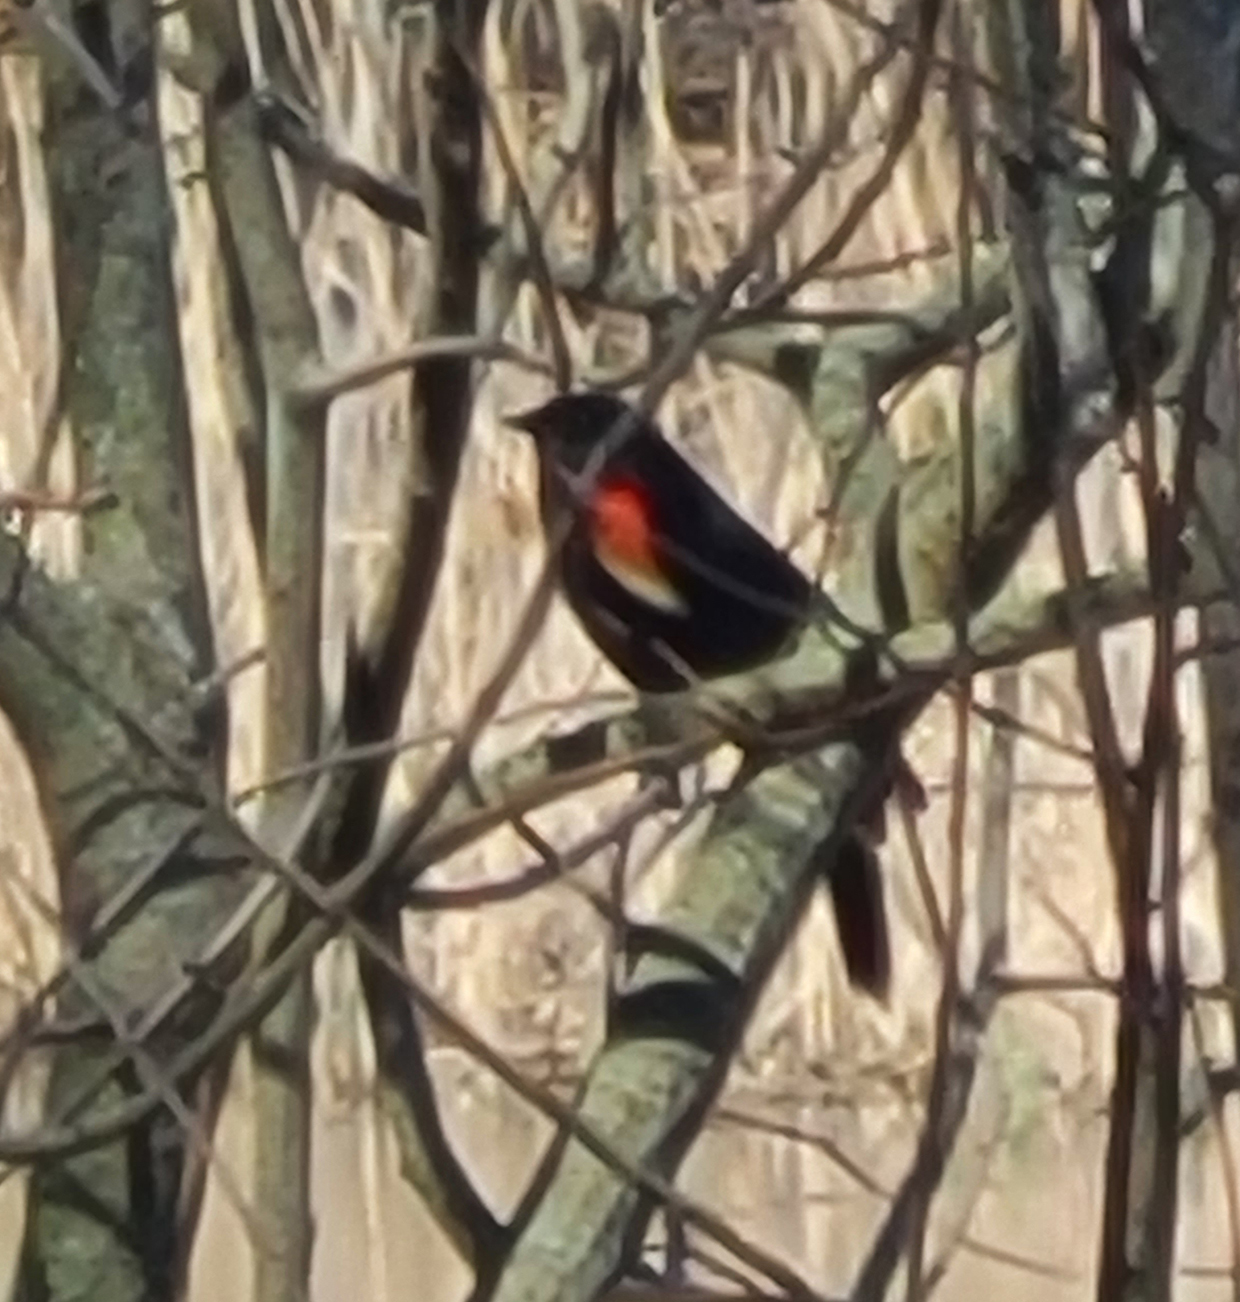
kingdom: Animalia
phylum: Chordata
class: Aves
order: Passeriformes
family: Icteridae
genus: Agelaius
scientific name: Agelaius phoeniceus
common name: Red-winged blackbird
